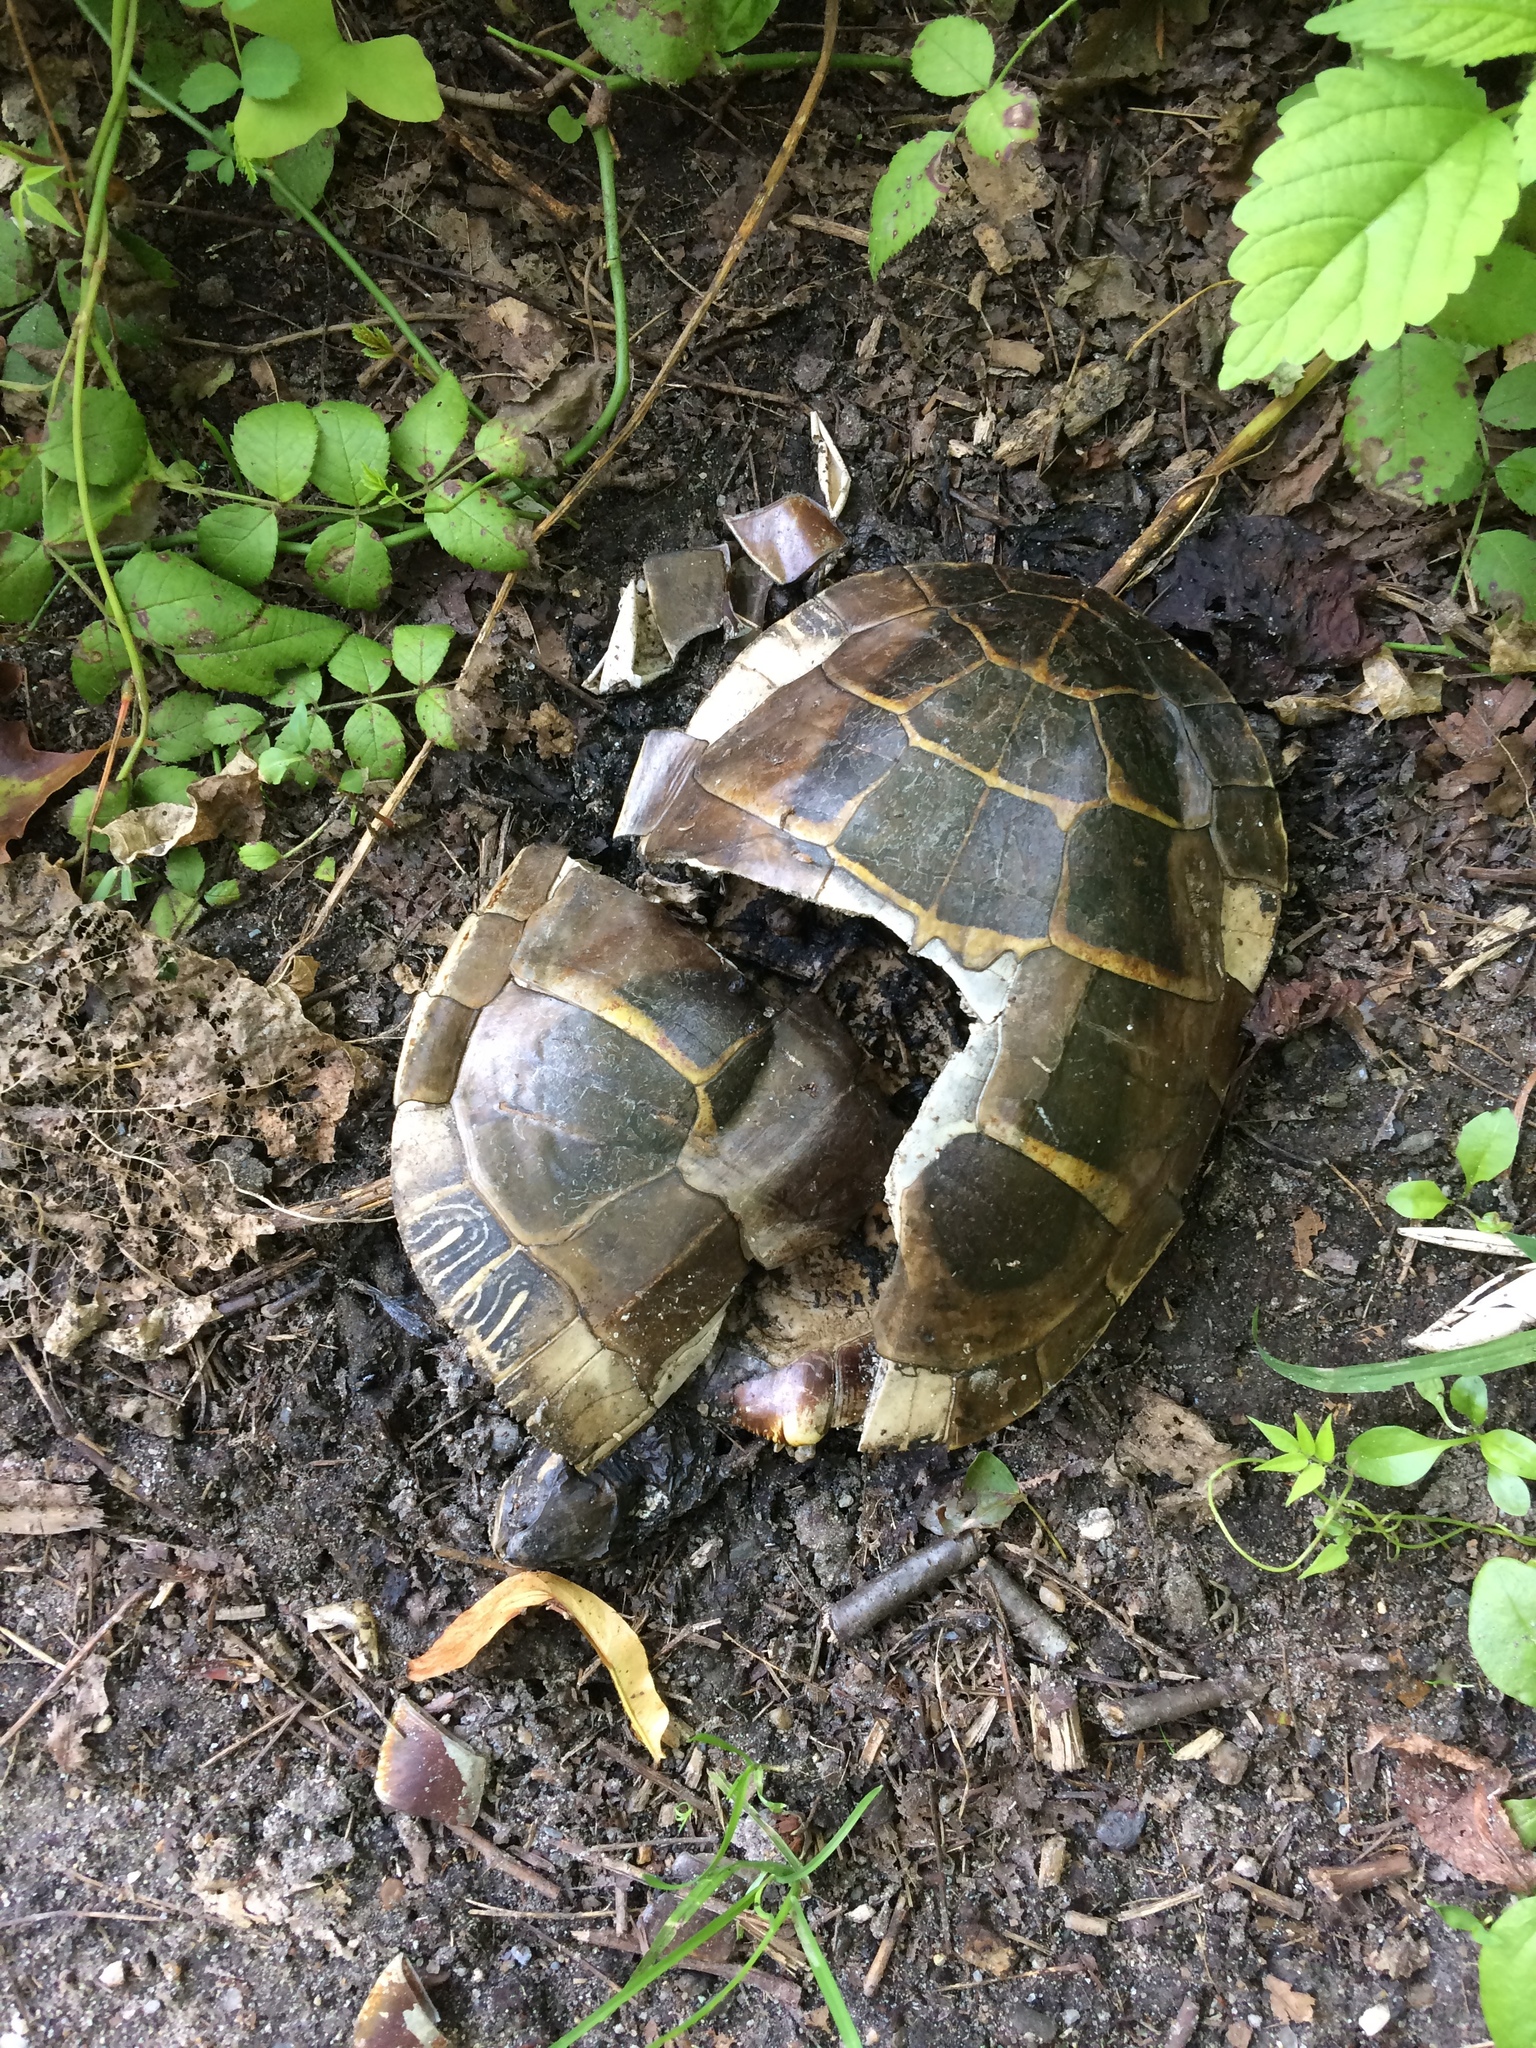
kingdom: Animalia
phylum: Chordata
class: Testudines
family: Emydidae
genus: Chrysemys
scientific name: Chrysemys picta
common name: Painted turtle
